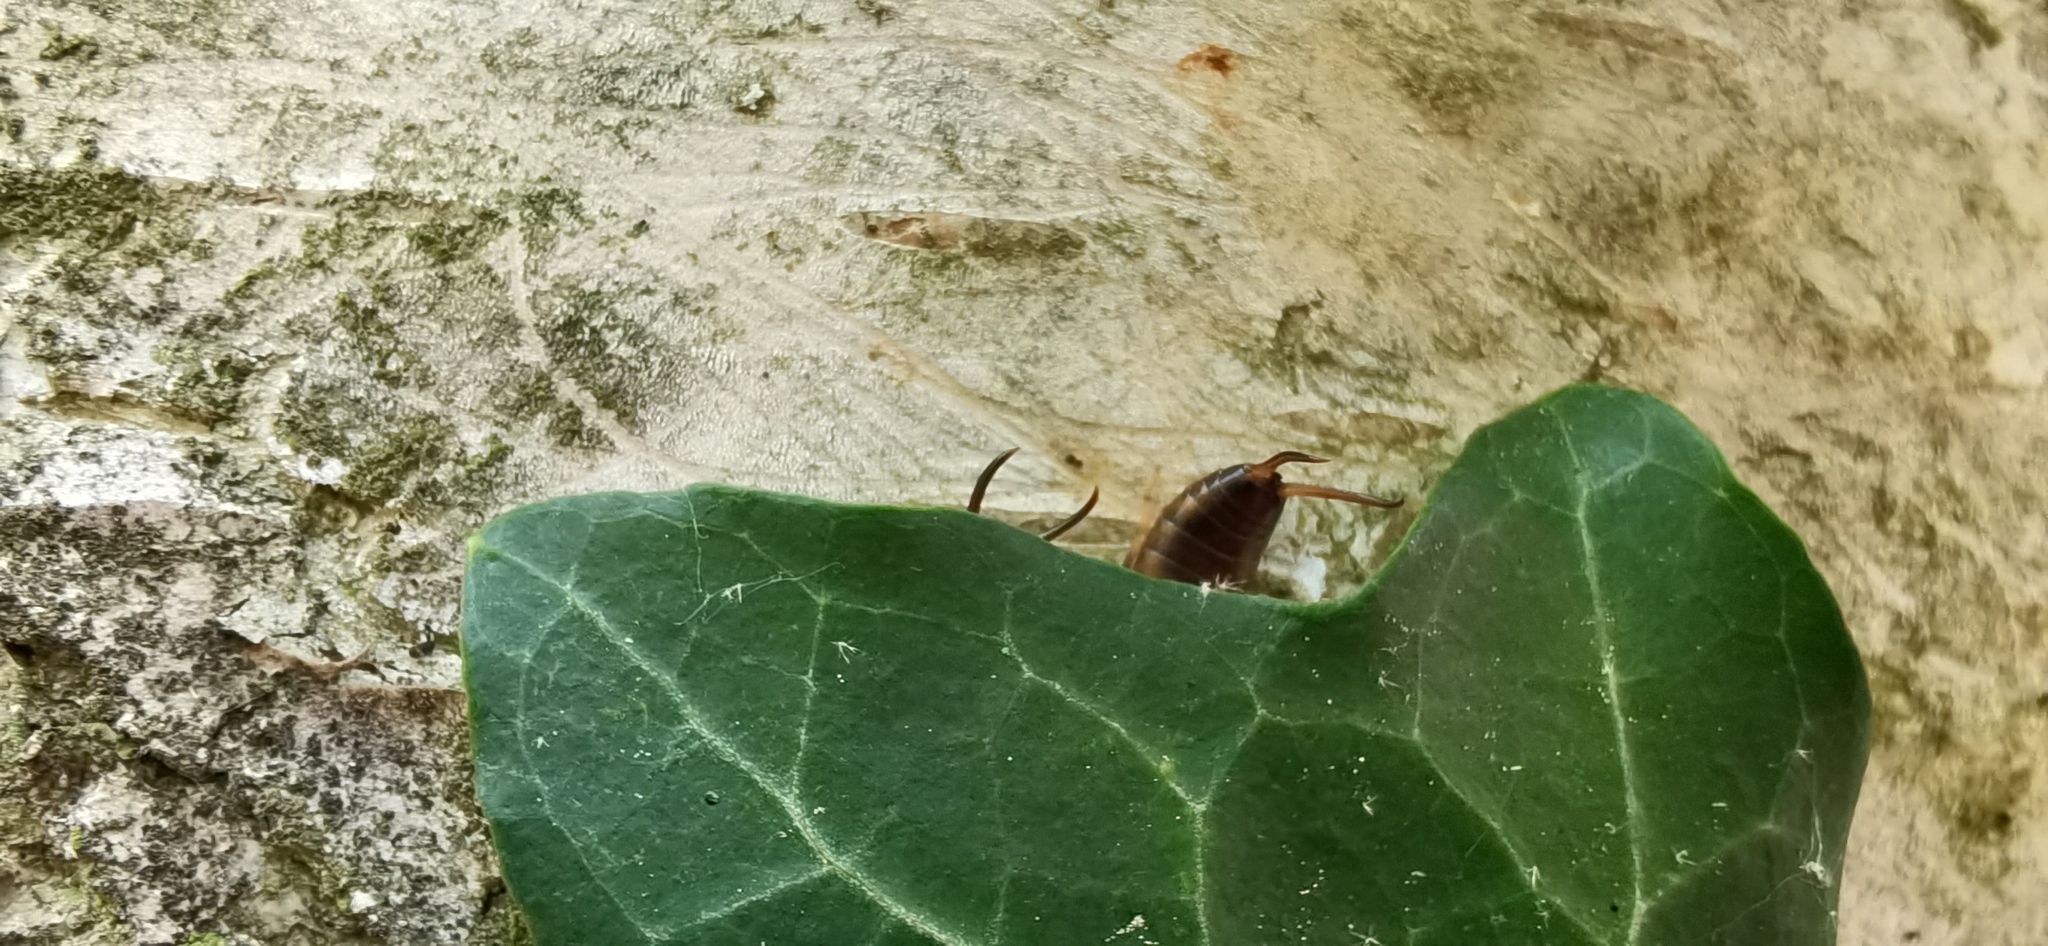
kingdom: Animalia
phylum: Arthropoda
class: Insecta
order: Dermaptera
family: Forficulidae
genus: Forficula
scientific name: Forficula
